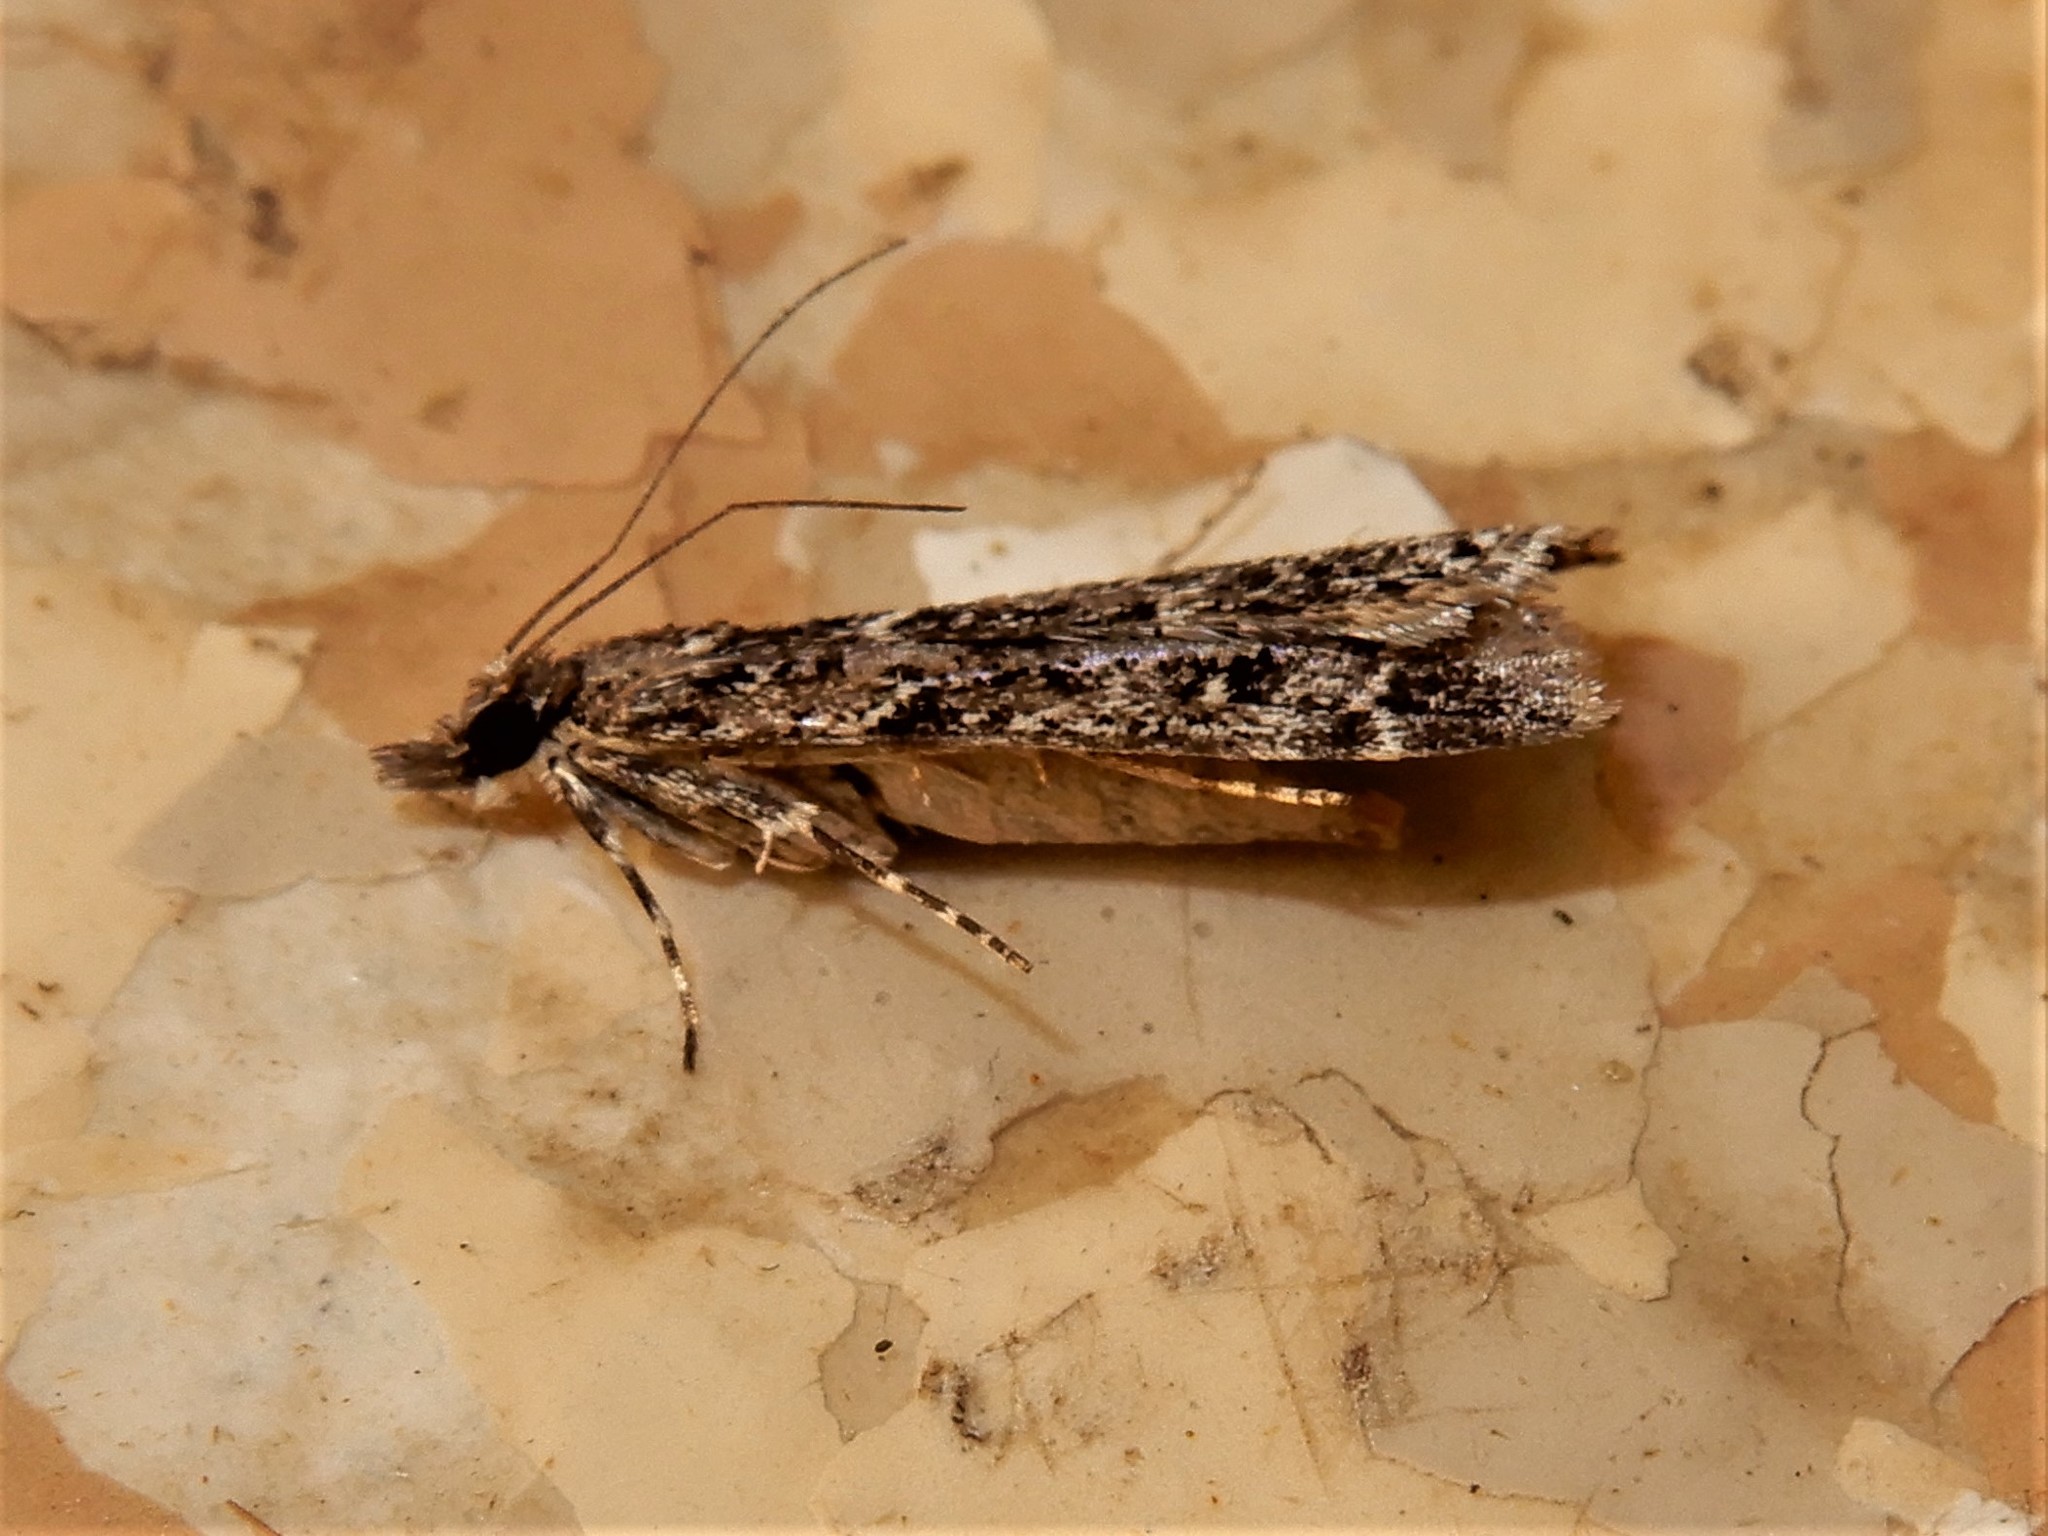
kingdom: Animalia
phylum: Arthropoda
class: Insecta
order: Lepidoptera
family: Crambidae
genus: Eudonia
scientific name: Eudonia philerga
